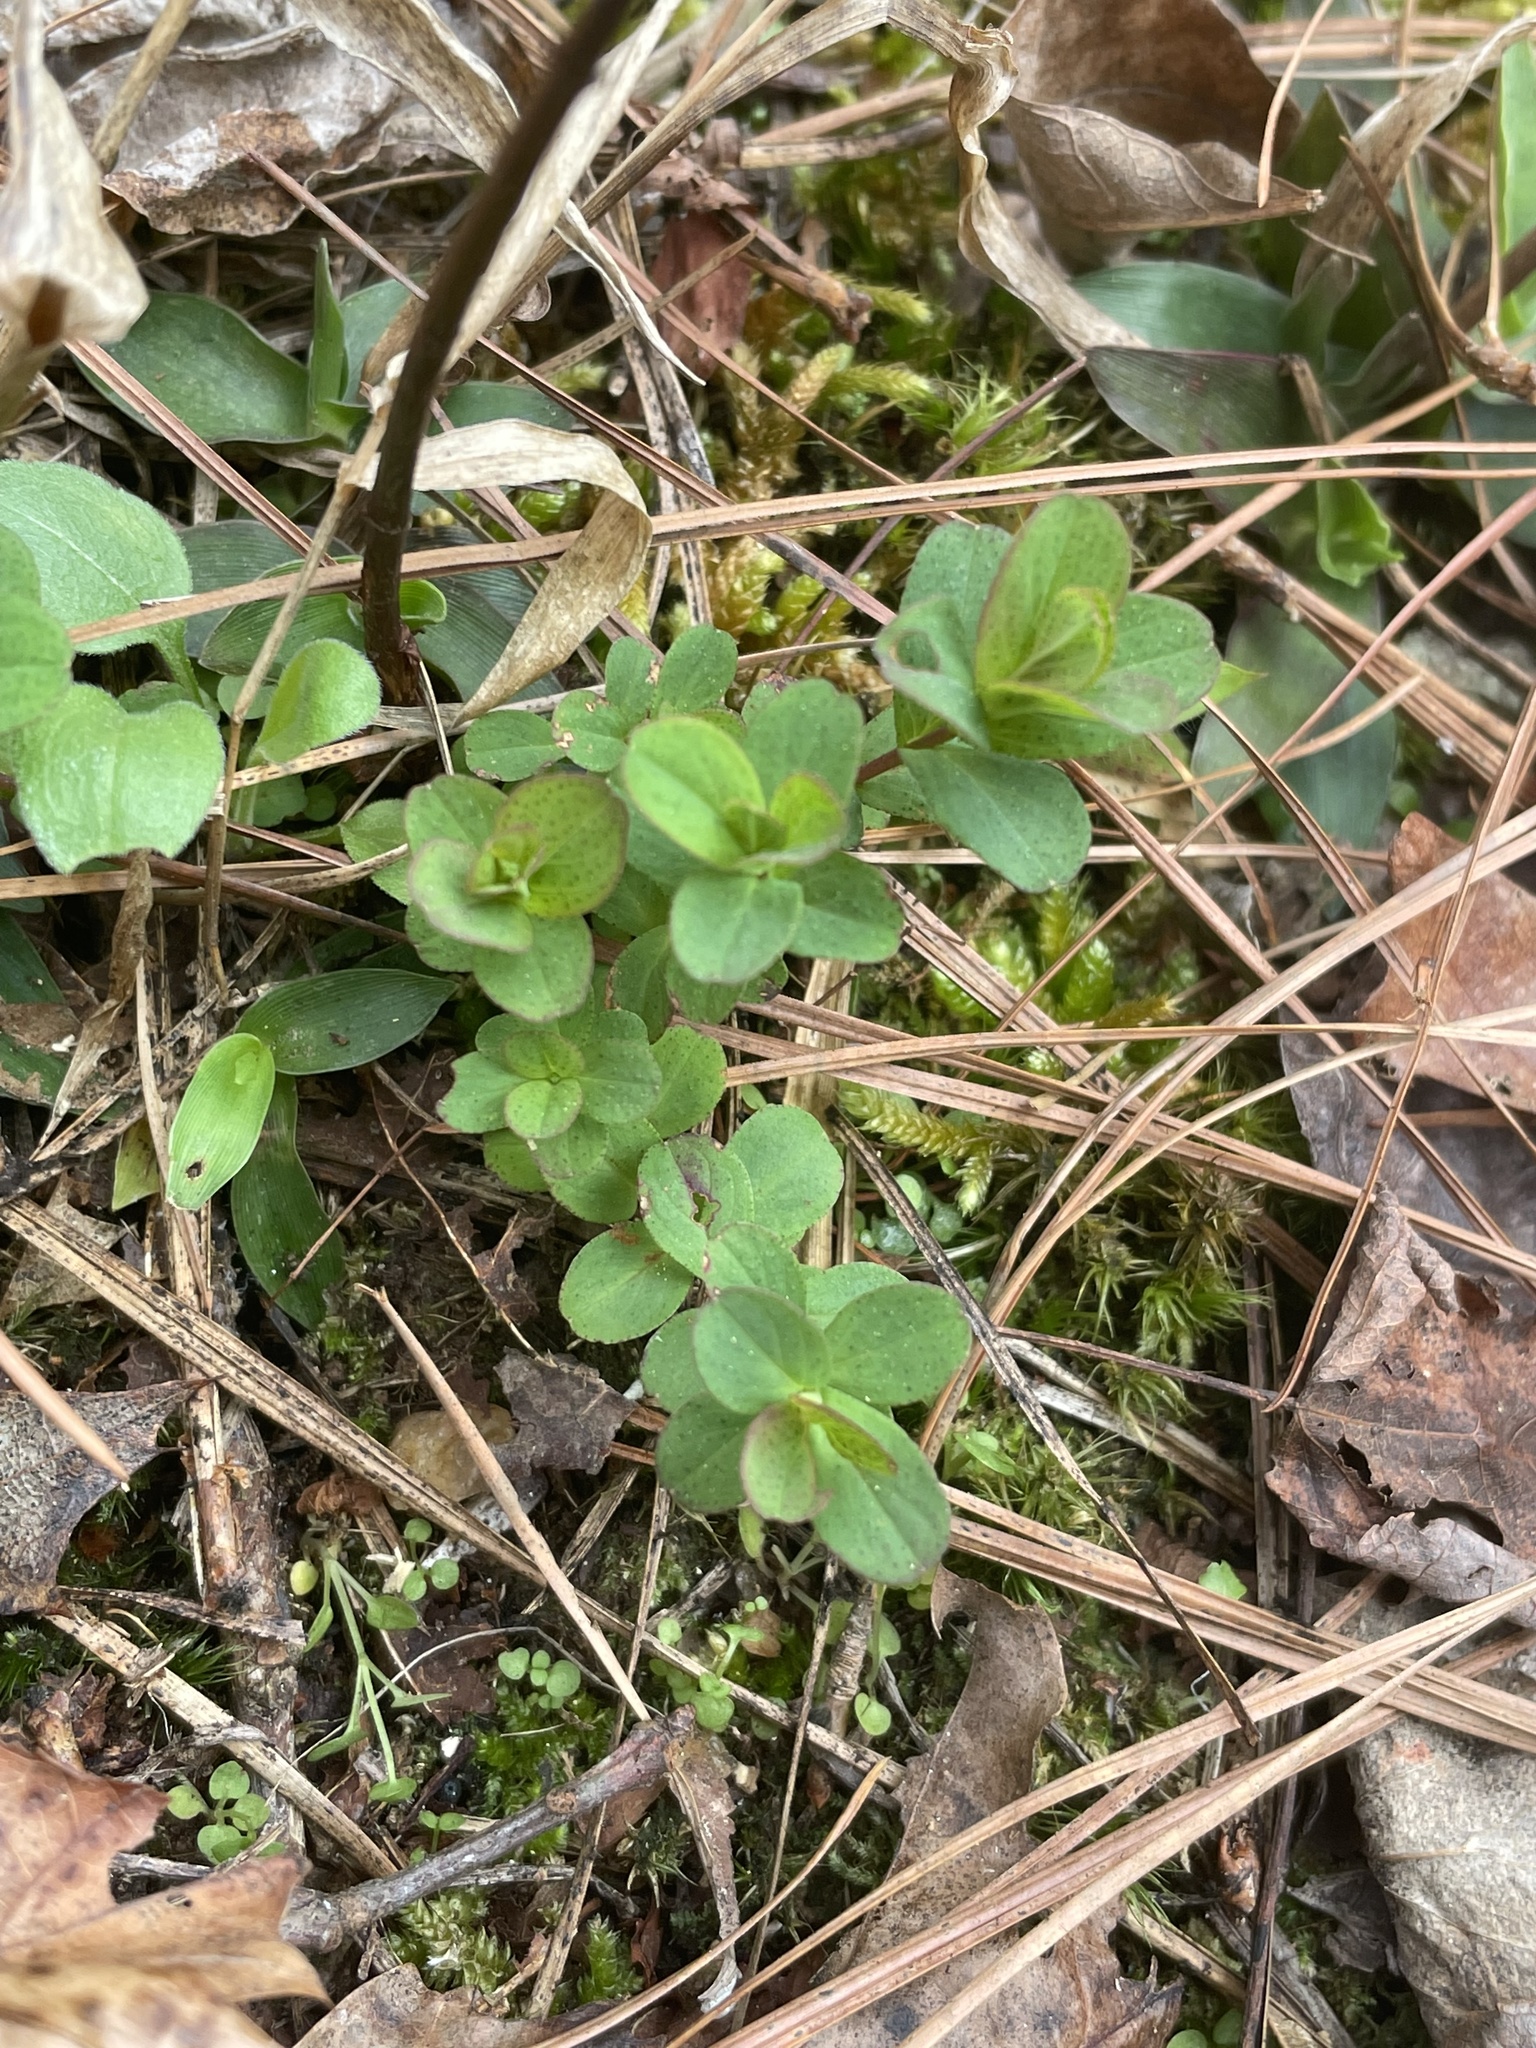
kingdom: Plantae
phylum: Tracheophyta
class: Magnoliopsida
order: Malpighiales
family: Hypericaceae
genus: Hypericum
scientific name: Hypericum punctatum
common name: Spotted st. john's-wort
